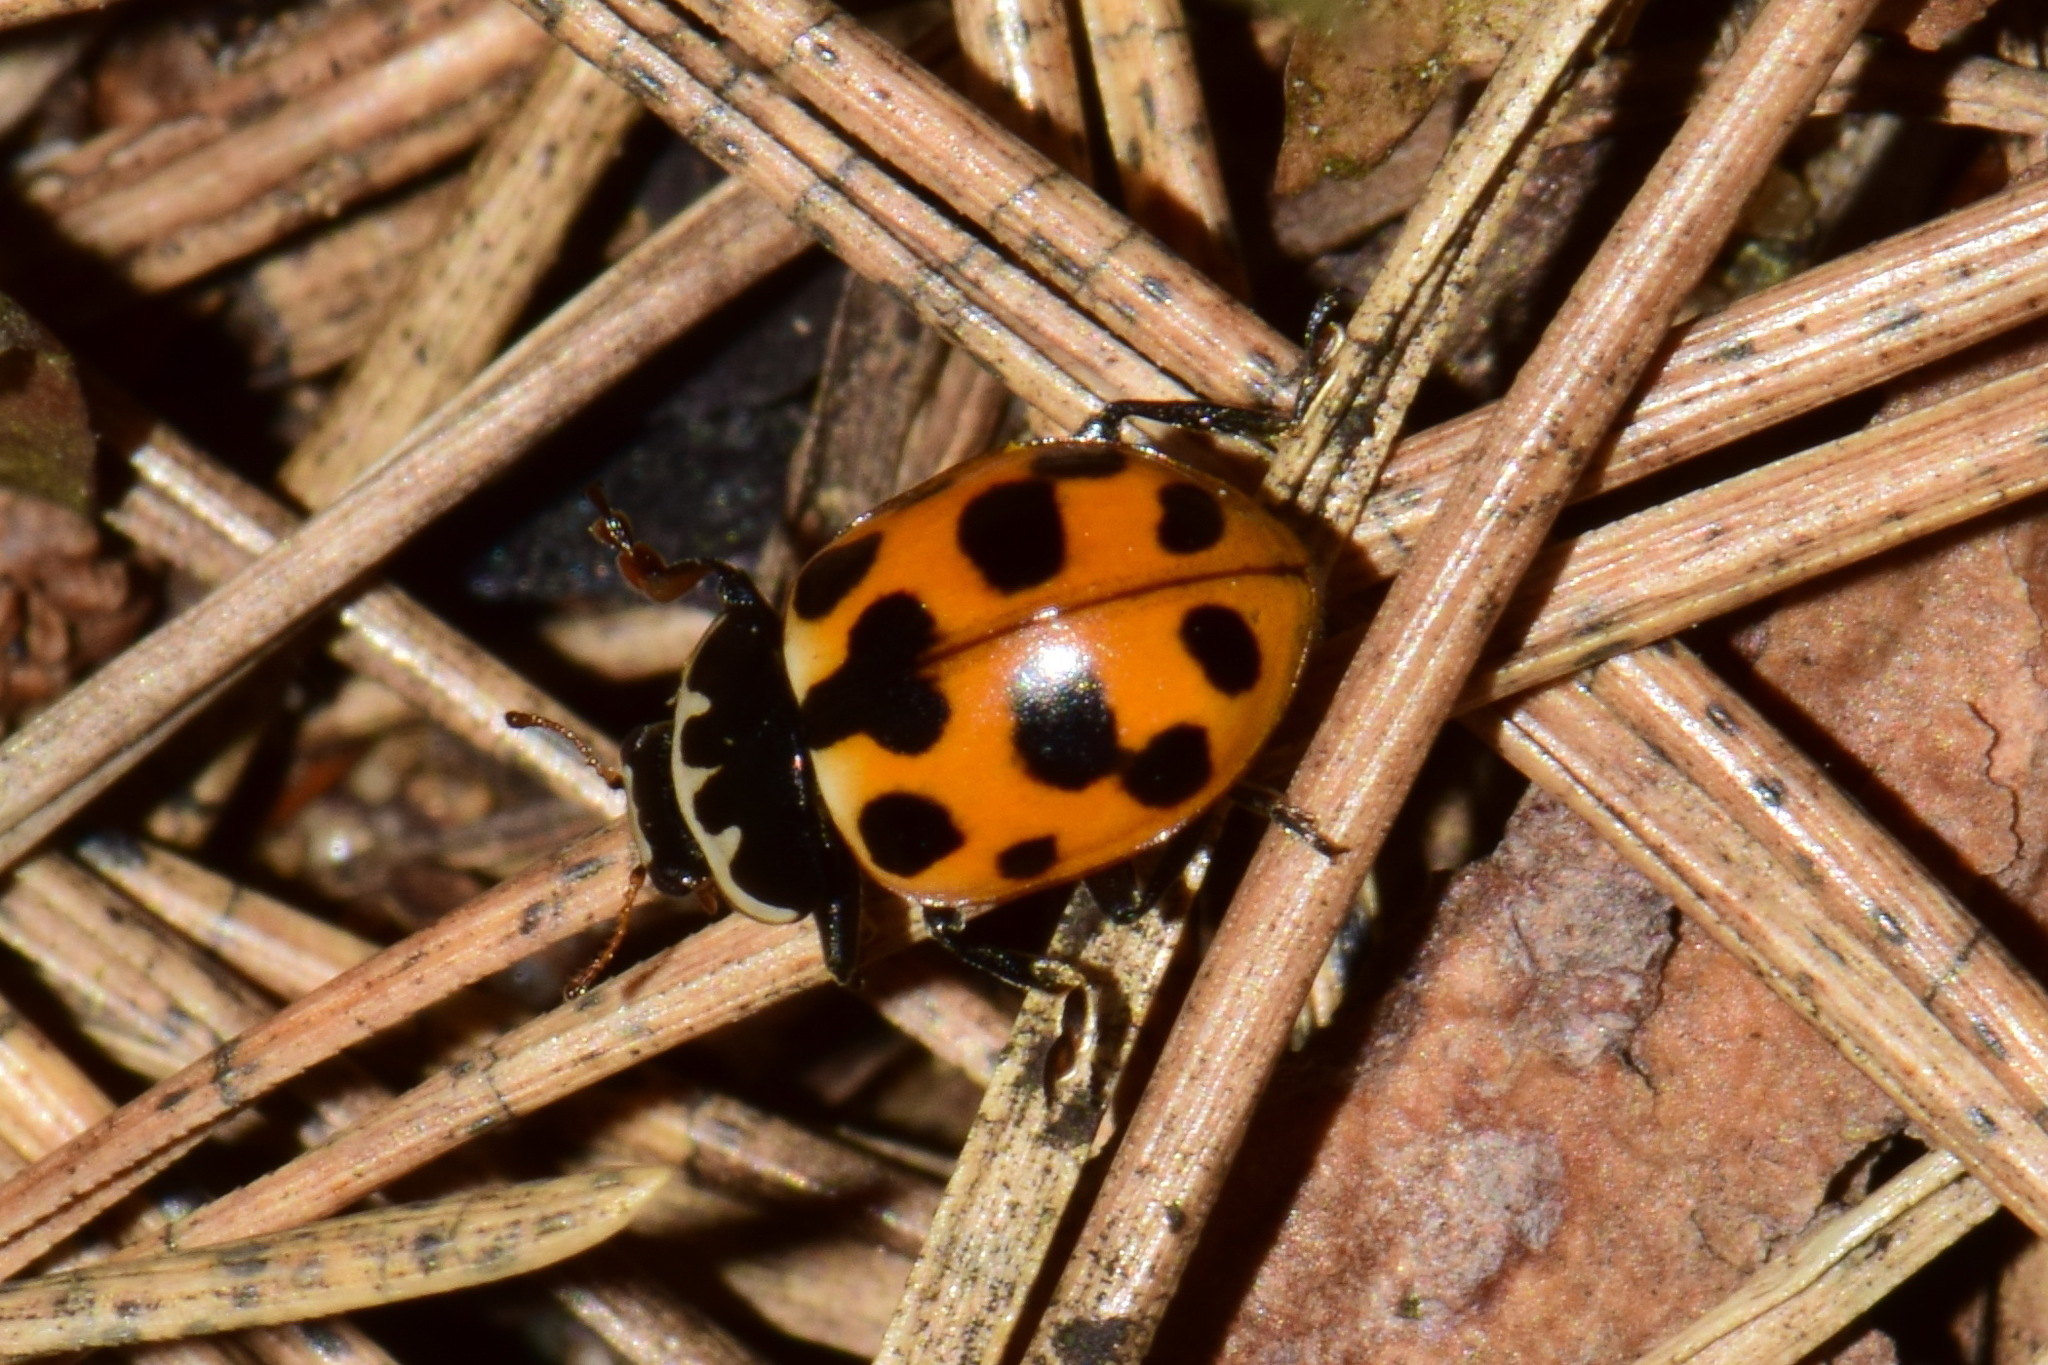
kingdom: Animalia
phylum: Arthropoda
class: Insecta
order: Coleoptera
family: Coccinellidae
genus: Ceratomegilla
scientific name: Ceratomegilla notata
